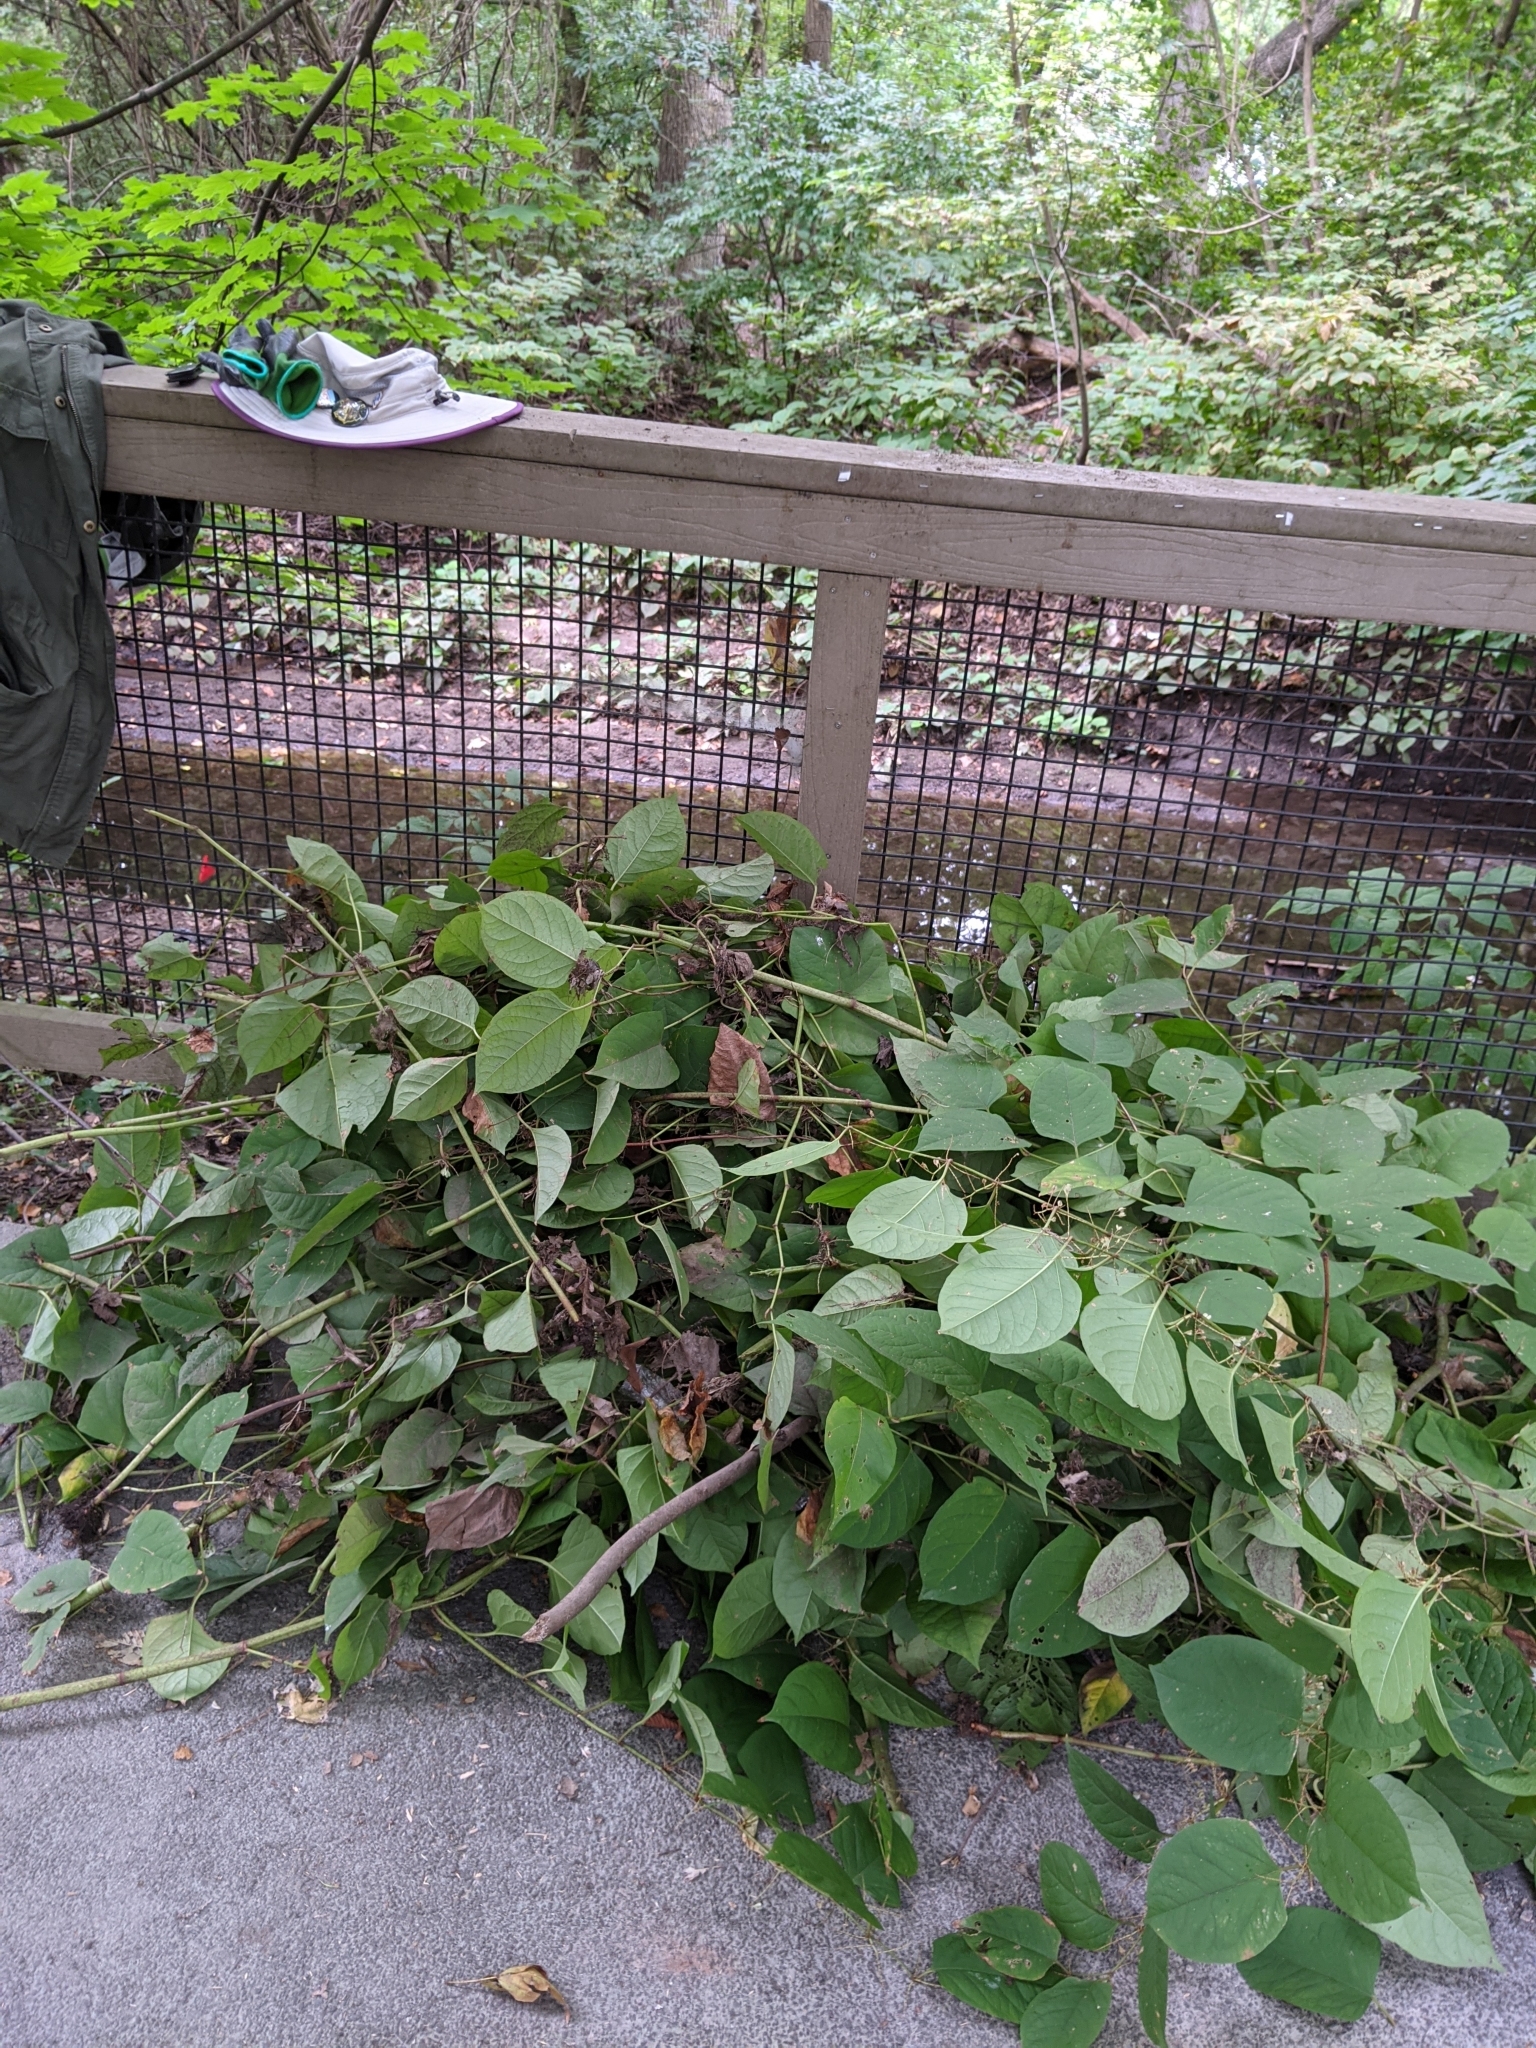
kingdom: Plantae
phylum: Tracheophyta
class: Magnoliopsida
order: Caryophyllales
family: Polygonaceae
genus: Reynoutria
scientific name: Reynoutria japonica
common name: Japanese knotweed
